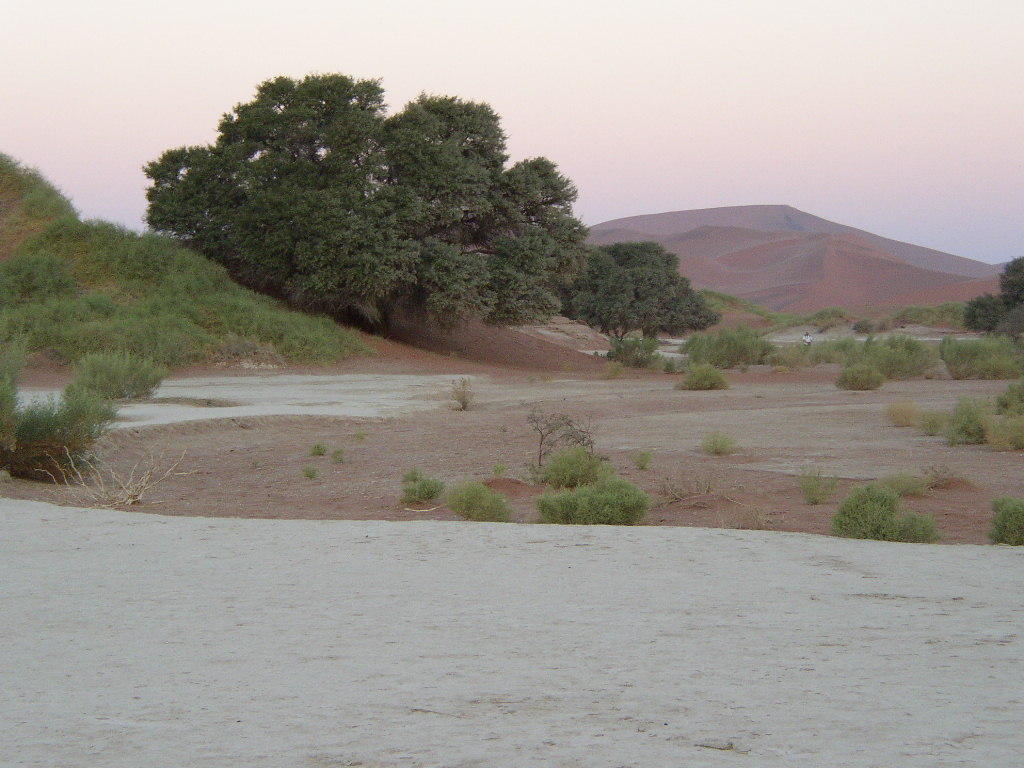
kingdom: Plantae
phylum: Tracheophyta
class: Magnoliopsida
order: Fabales
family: Fabaceae
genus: Vachellia
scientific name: Vachellia erioloba
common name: Camel thorn
